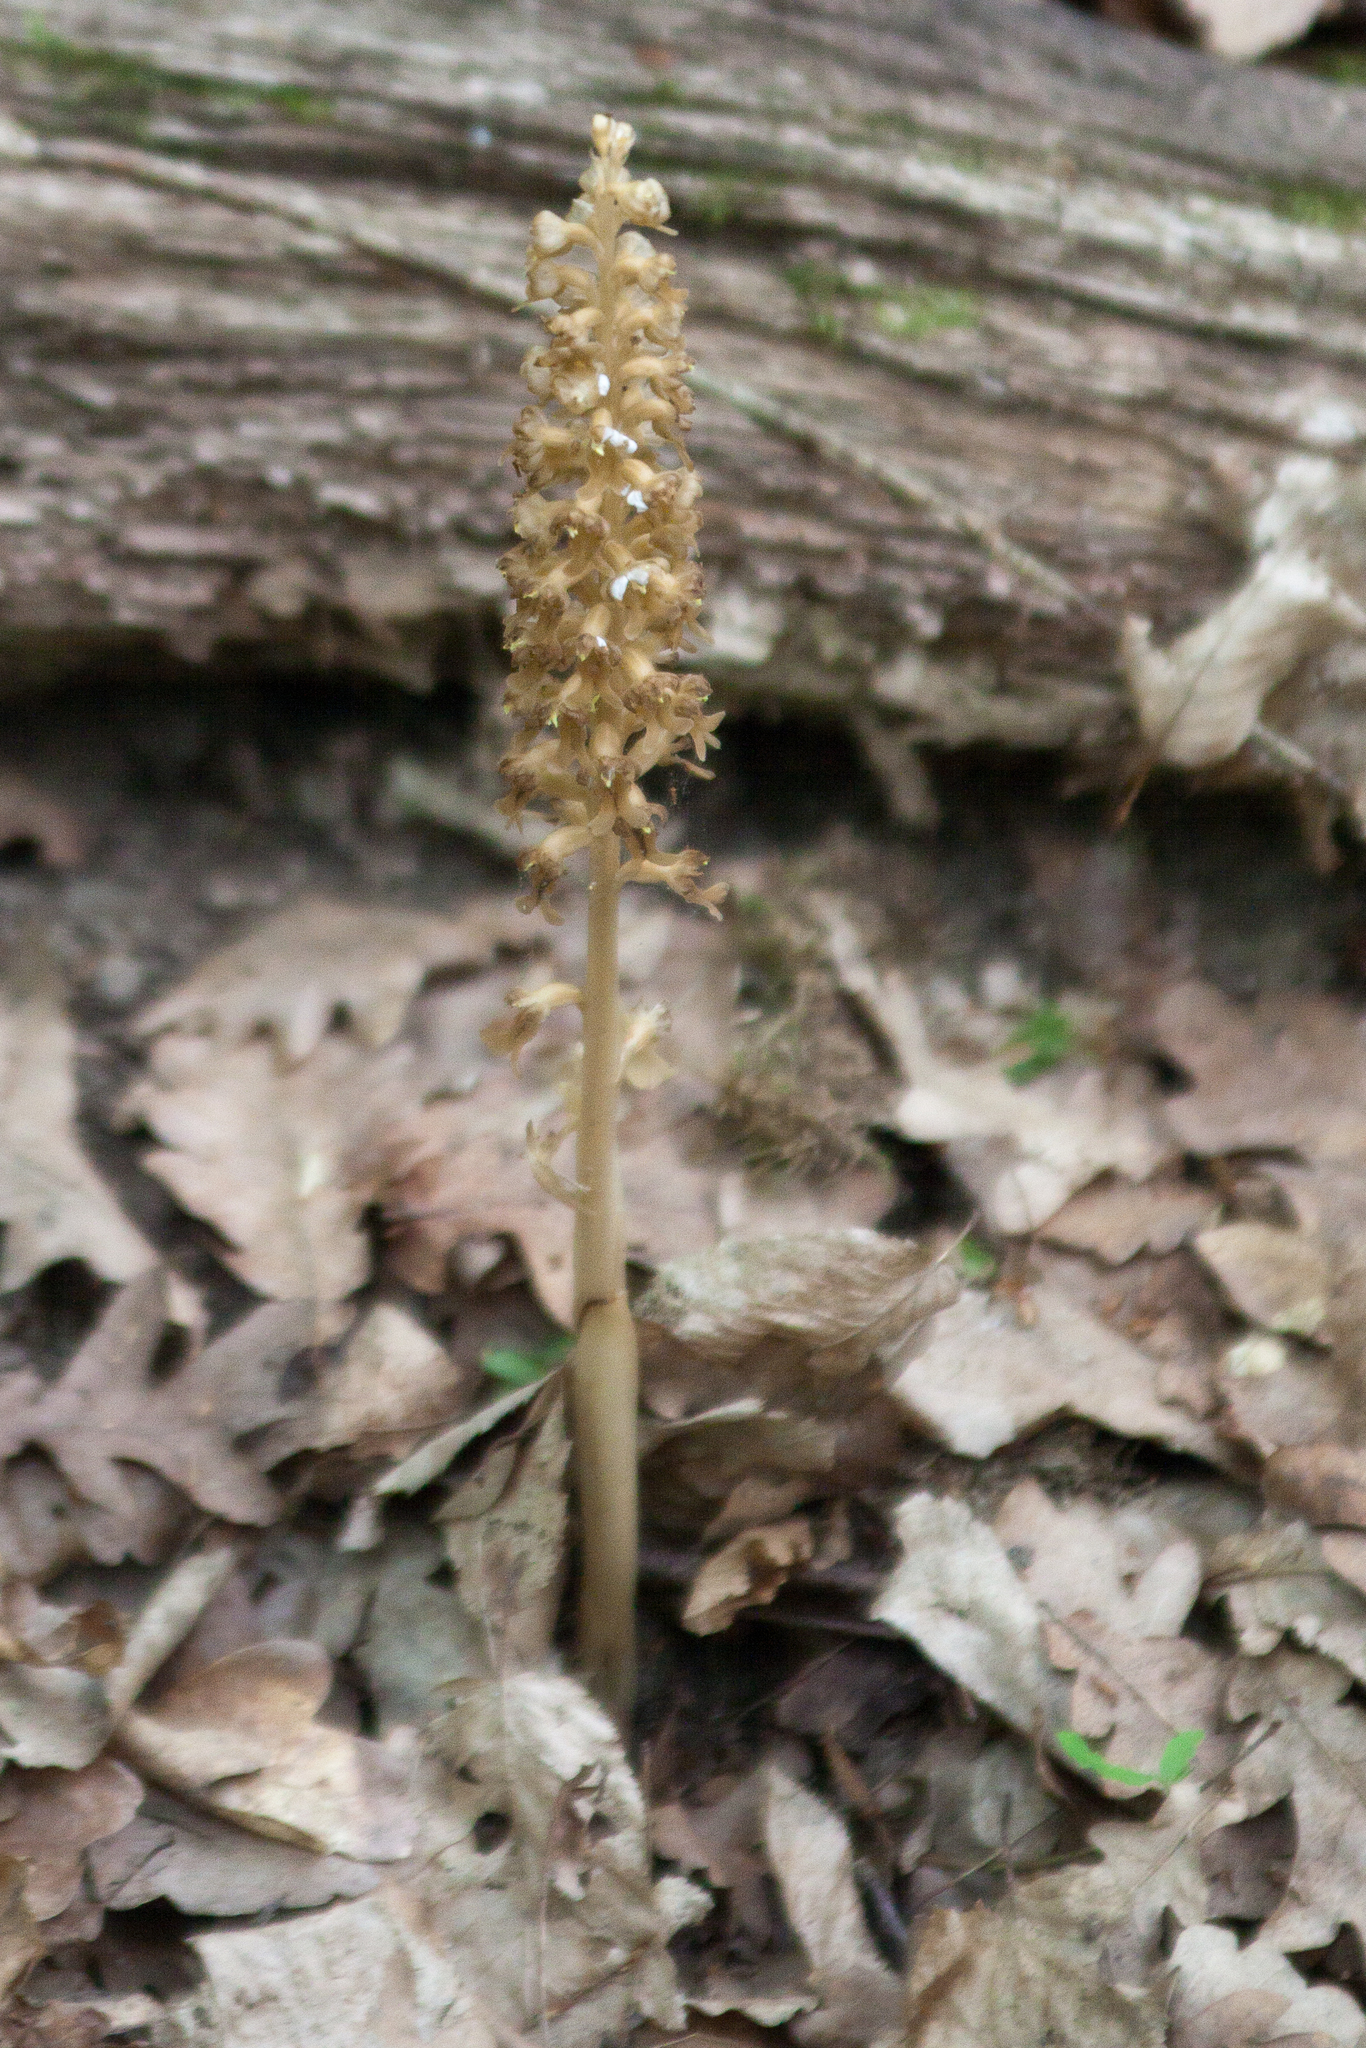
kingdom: Plantae
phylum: Tracheophyta
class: Liliopsida
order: Asparagales
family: Orchidaceae
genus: Neottia
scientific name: Neottia nidus-avis
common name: Bird's-nest orchid
